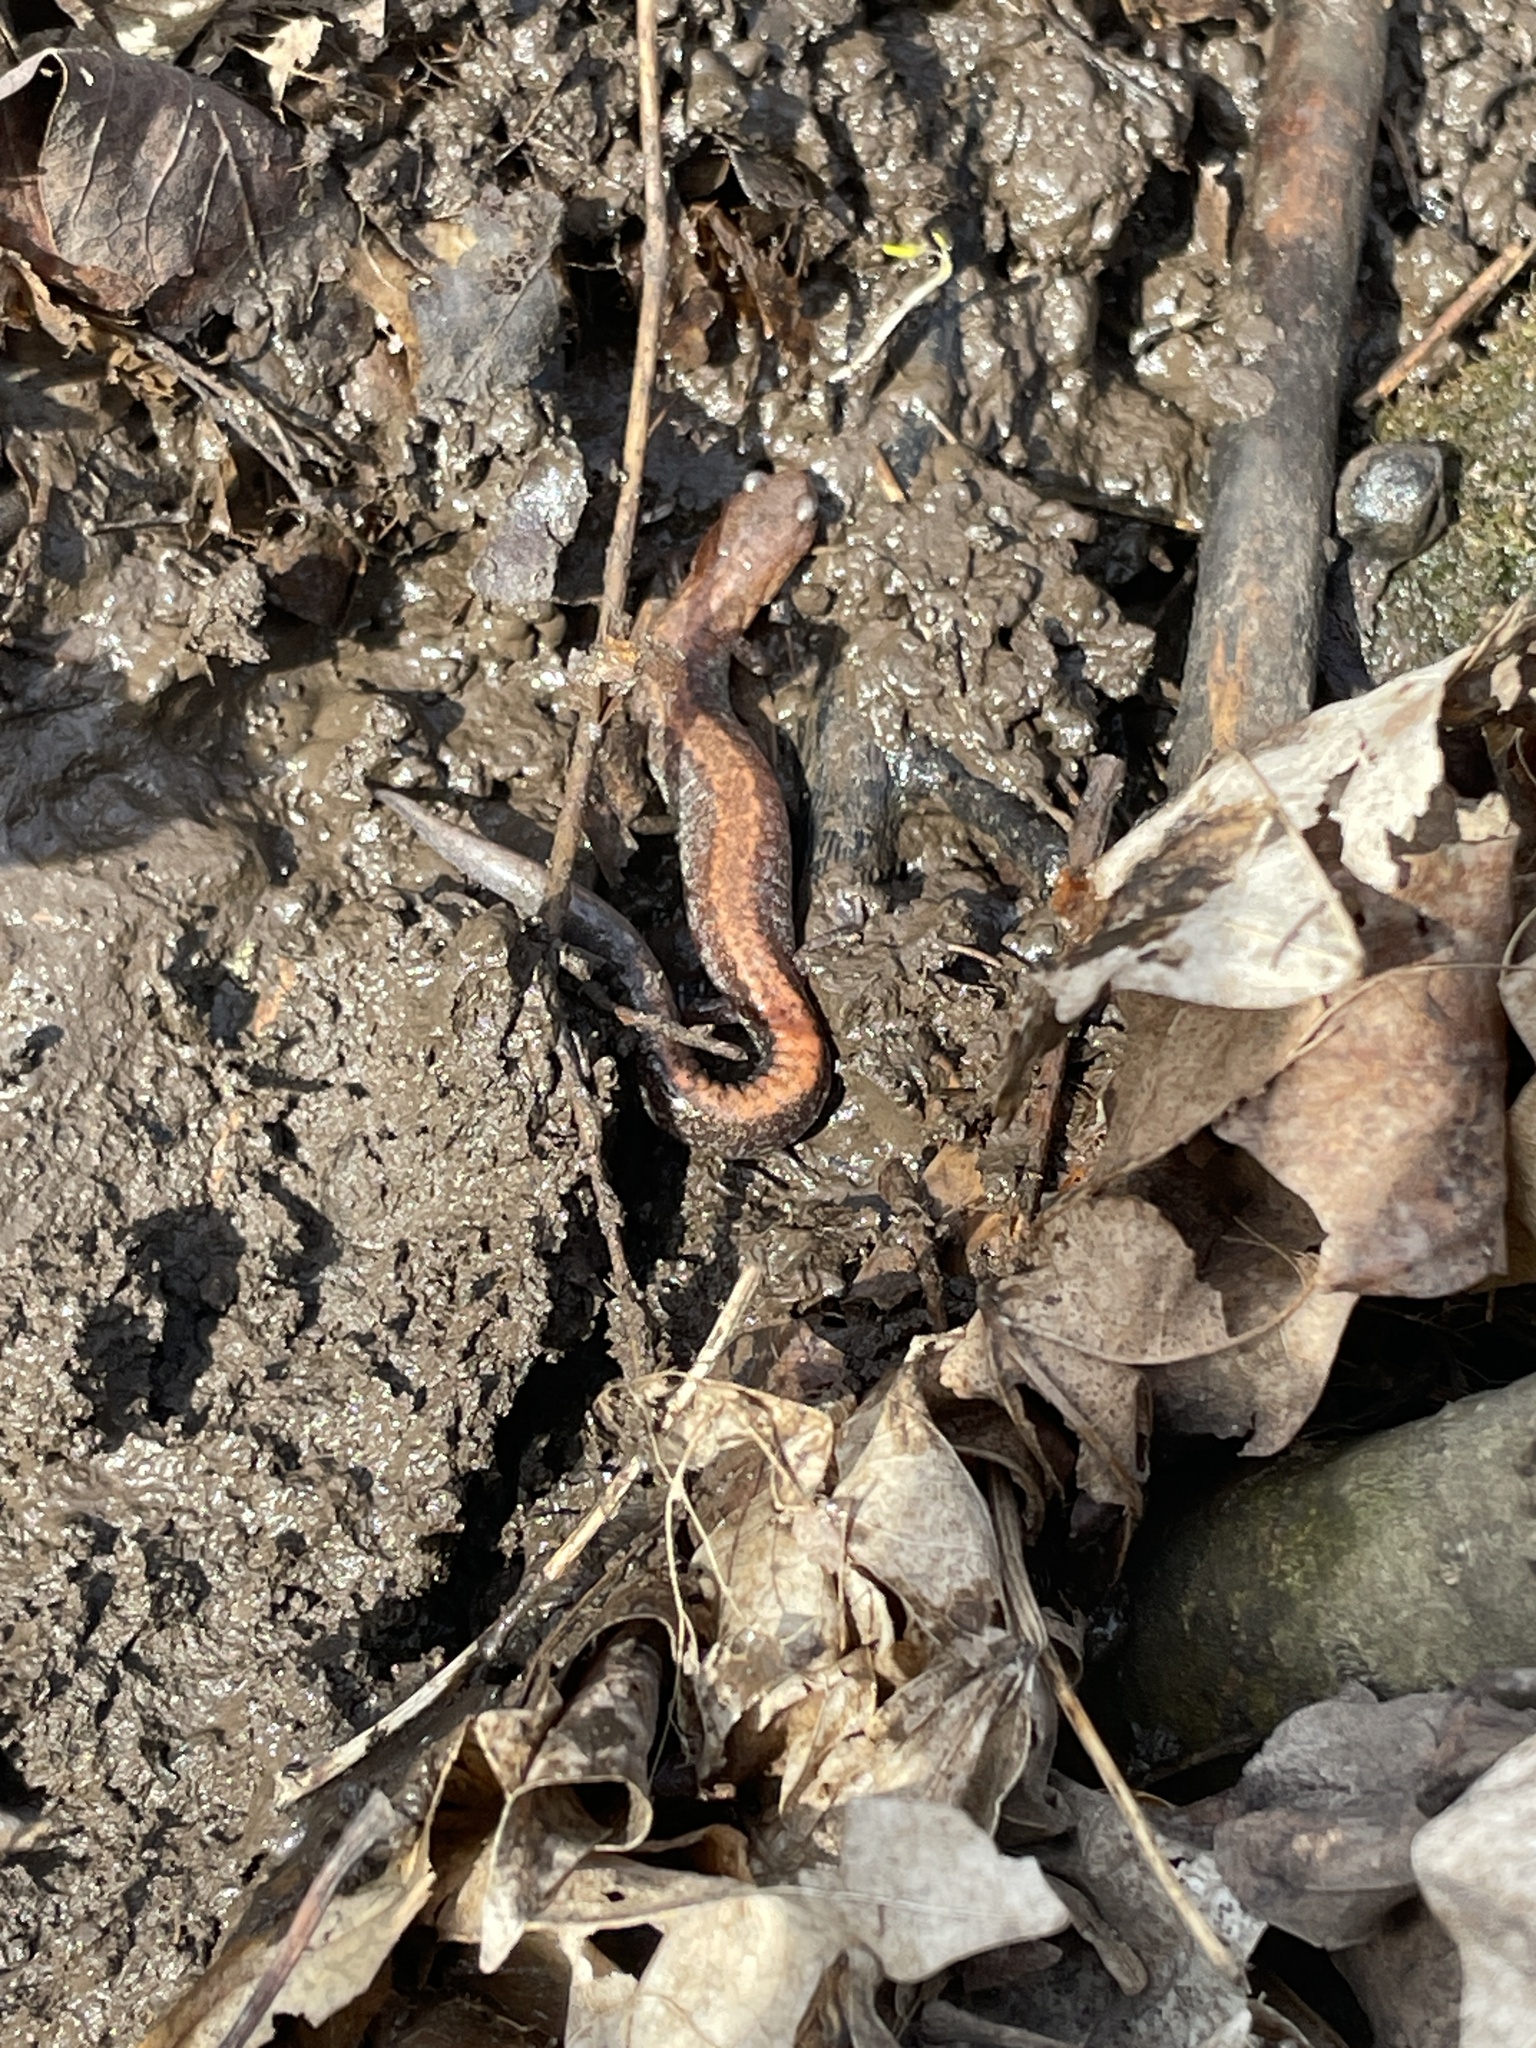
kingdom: Animalia
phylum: Chordata
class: Amphibia
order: Caudata
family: Plethodontidae
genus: Plethodon
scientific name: Plethodon cinereus
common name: Redback salamander
